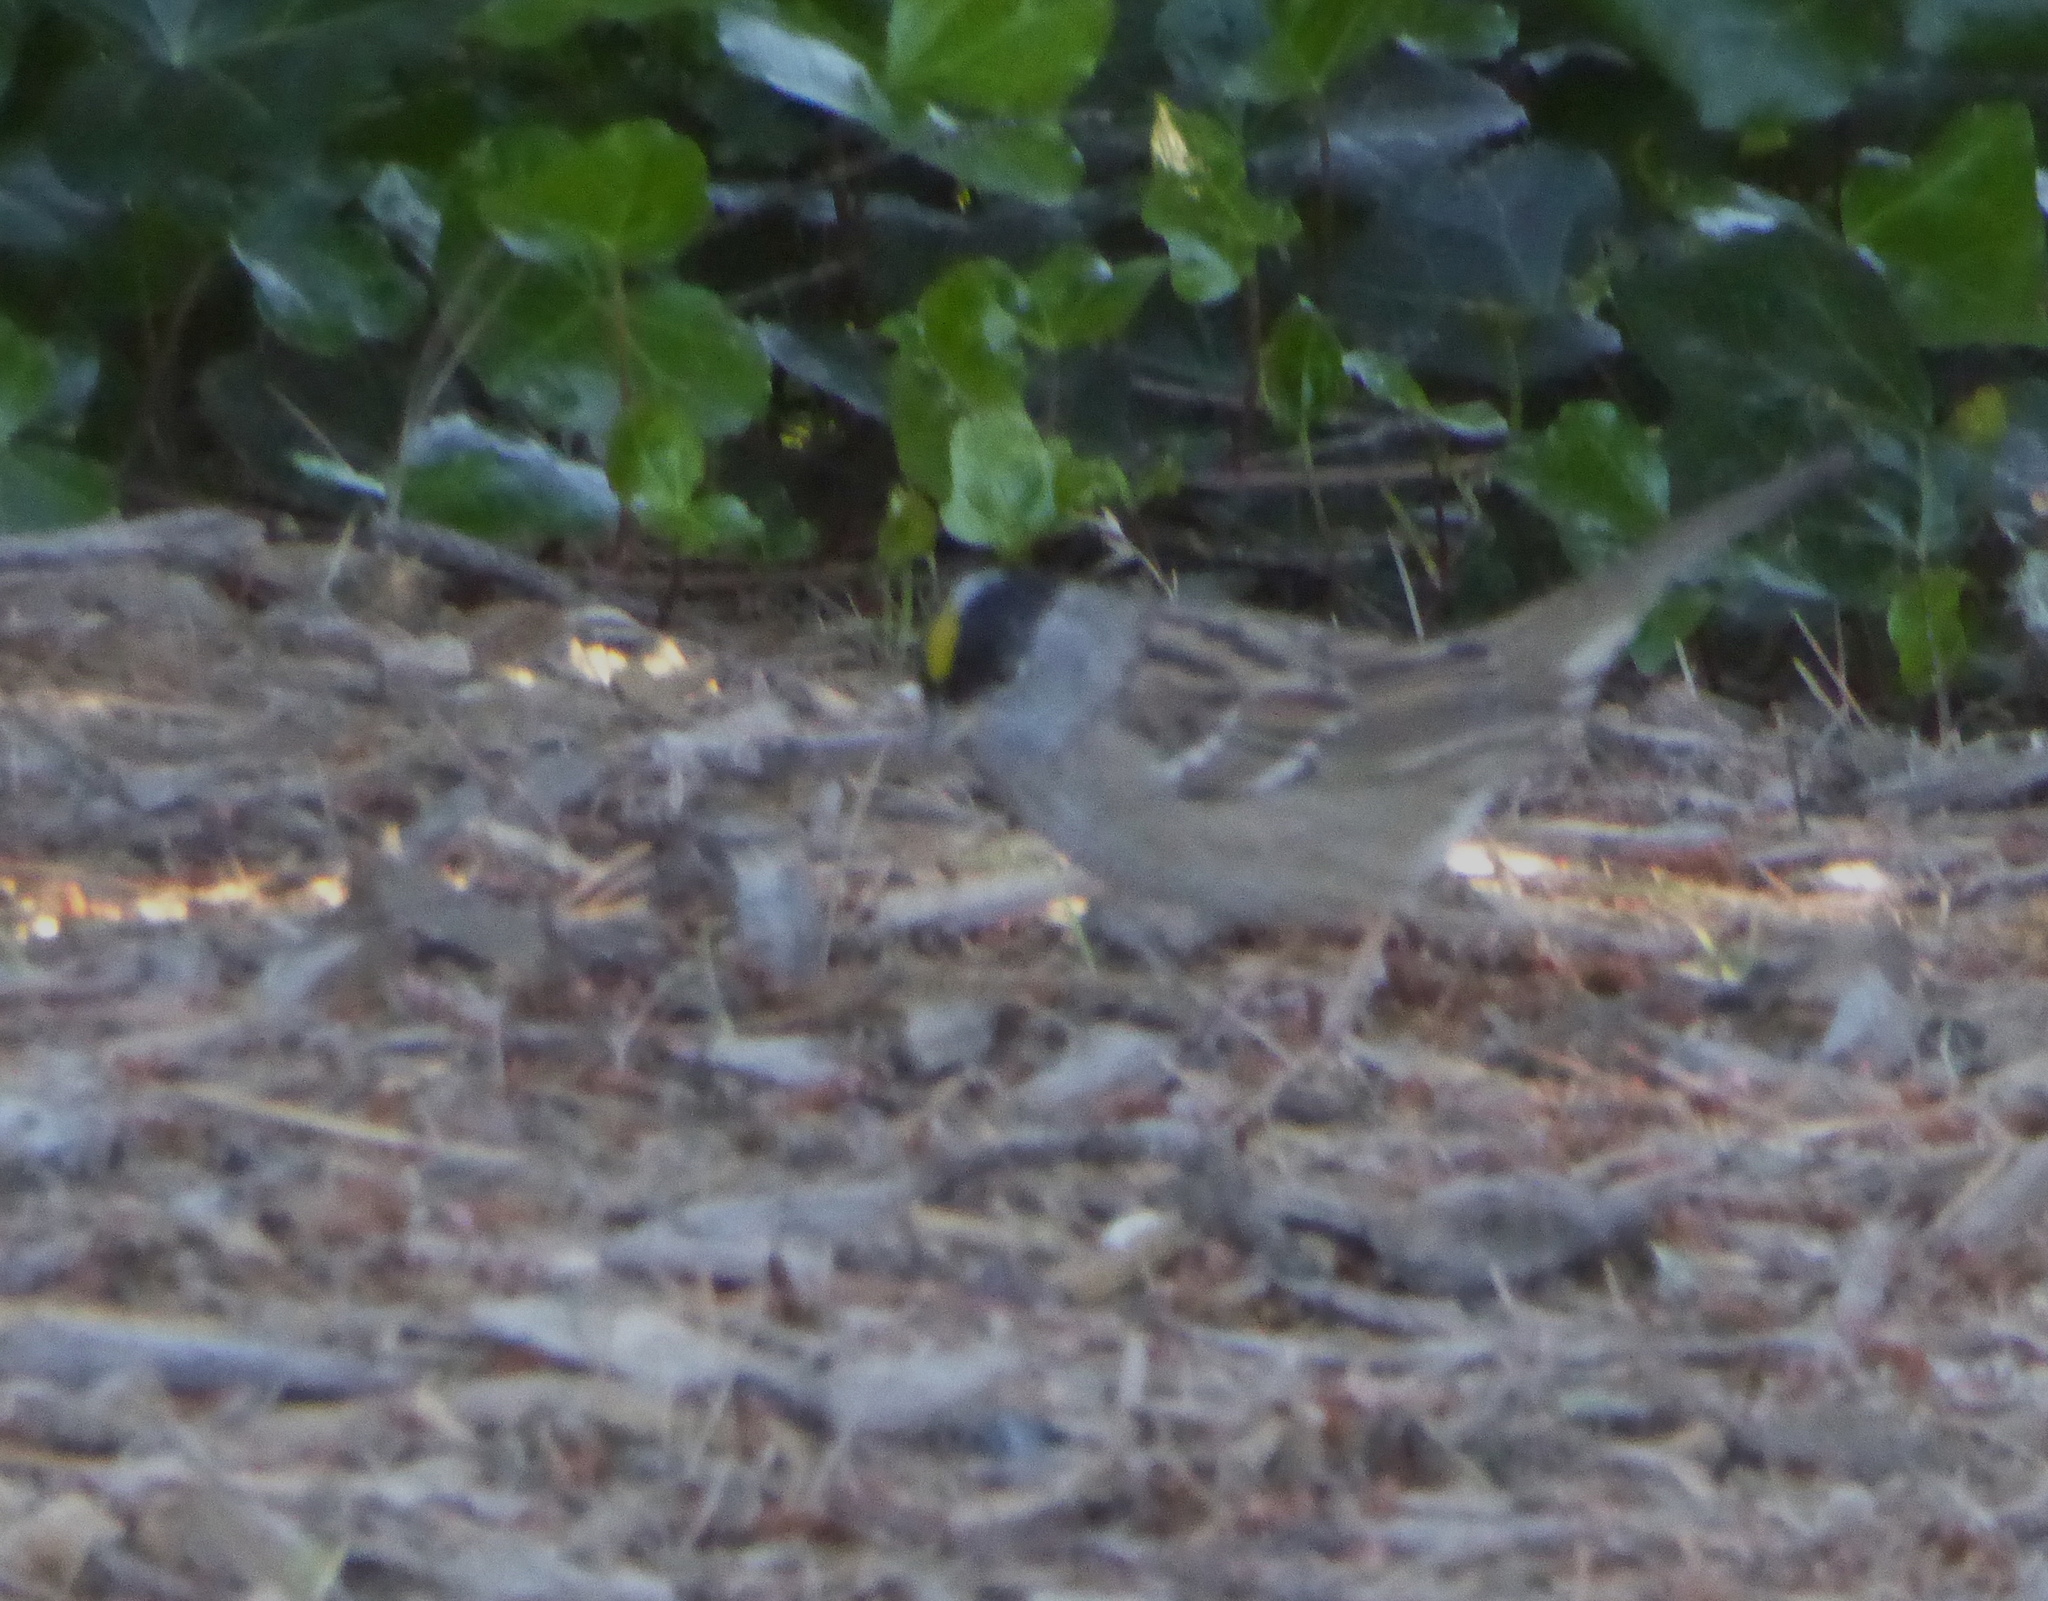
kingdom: Animalia
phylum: Chordata
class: Aves
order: Passeriformes
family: Passerellidae
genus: Zonotrichia
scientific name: Zonotrichia atricapilla
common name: Golden-crowned sparrow
